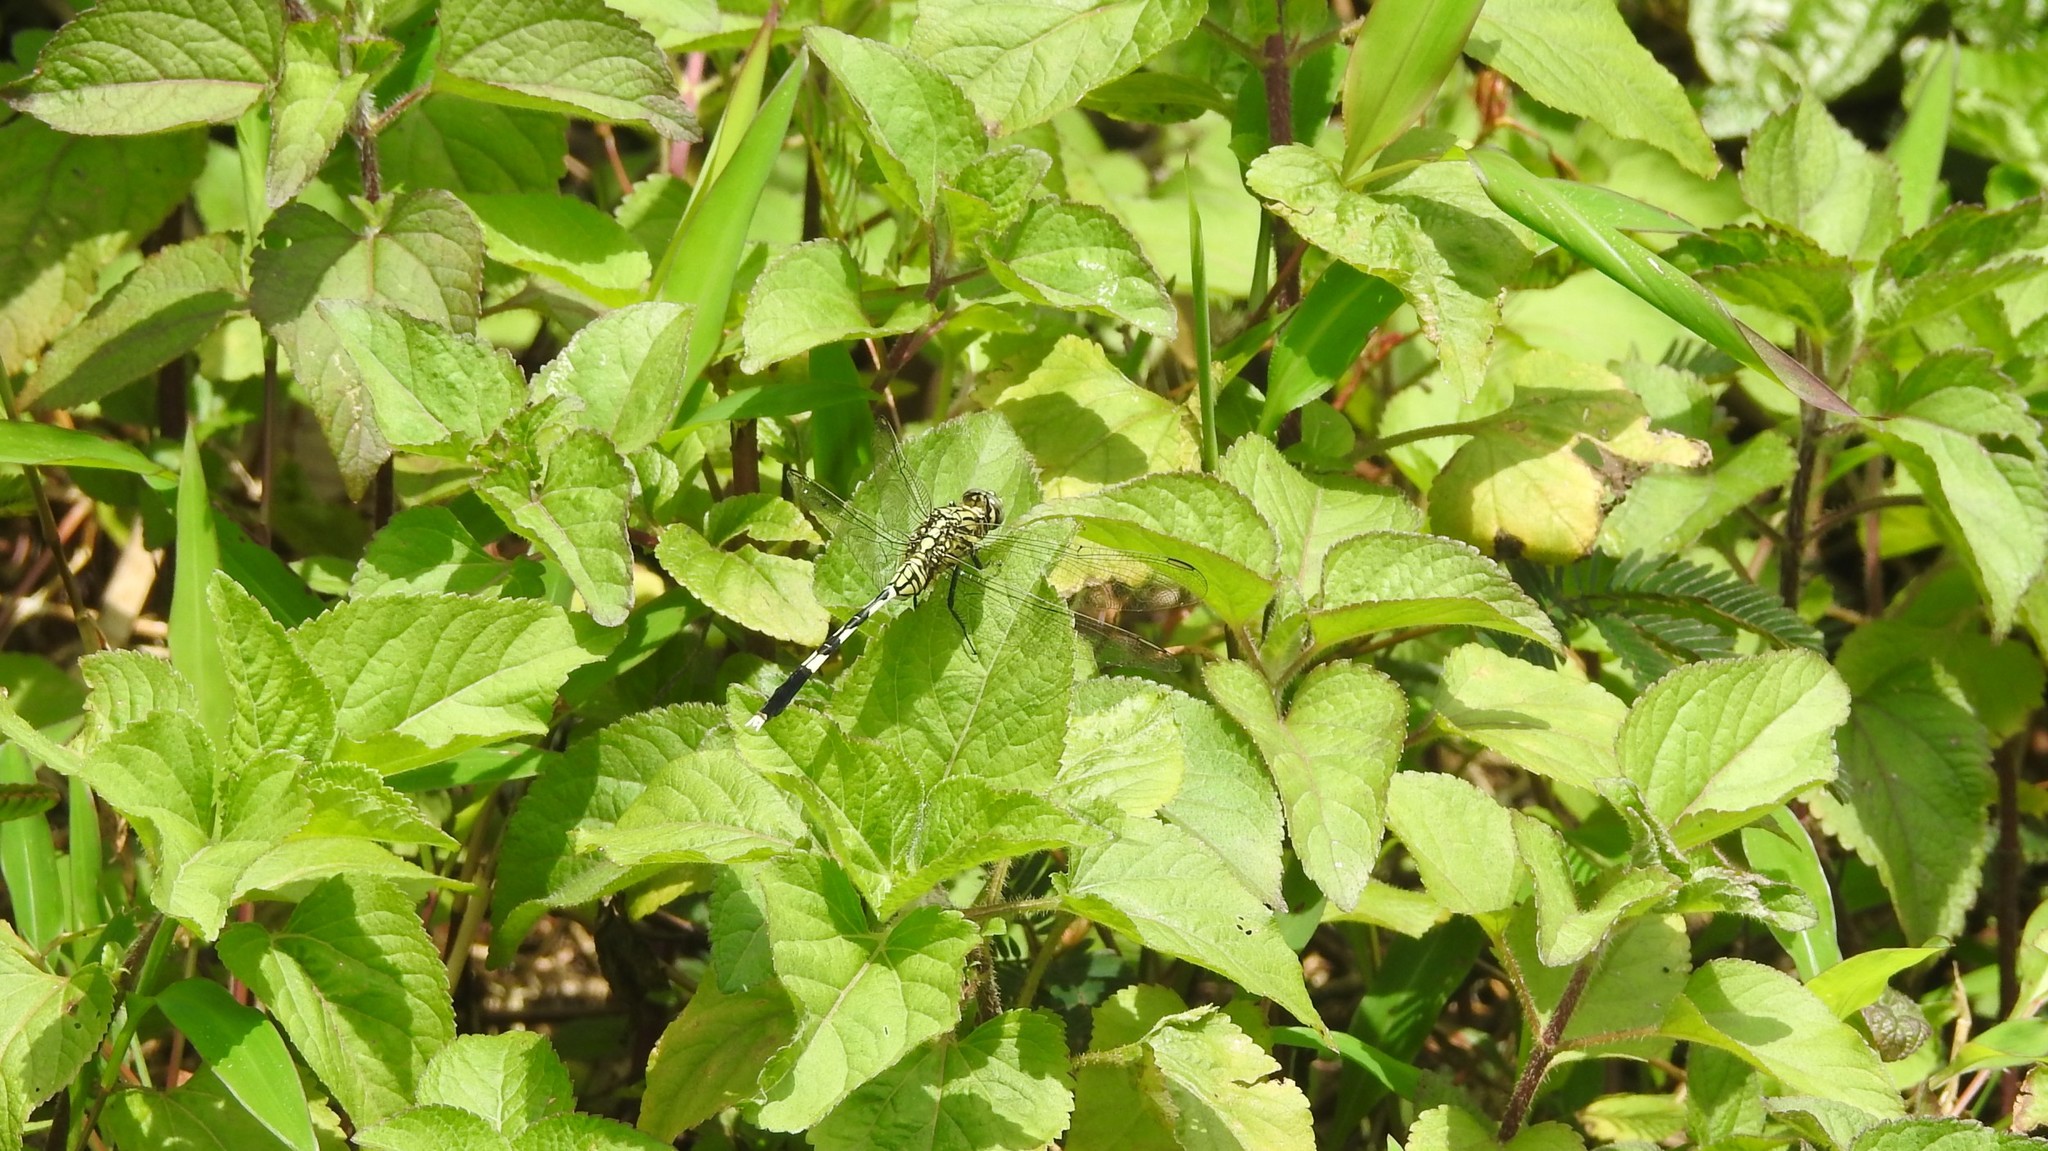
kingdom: Animalia
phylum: Arthropoda
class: Insecta
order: Odonata
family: Libellulidae
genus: Orthetrum
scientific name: Orthetrum sabina
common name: Slender skimmer
